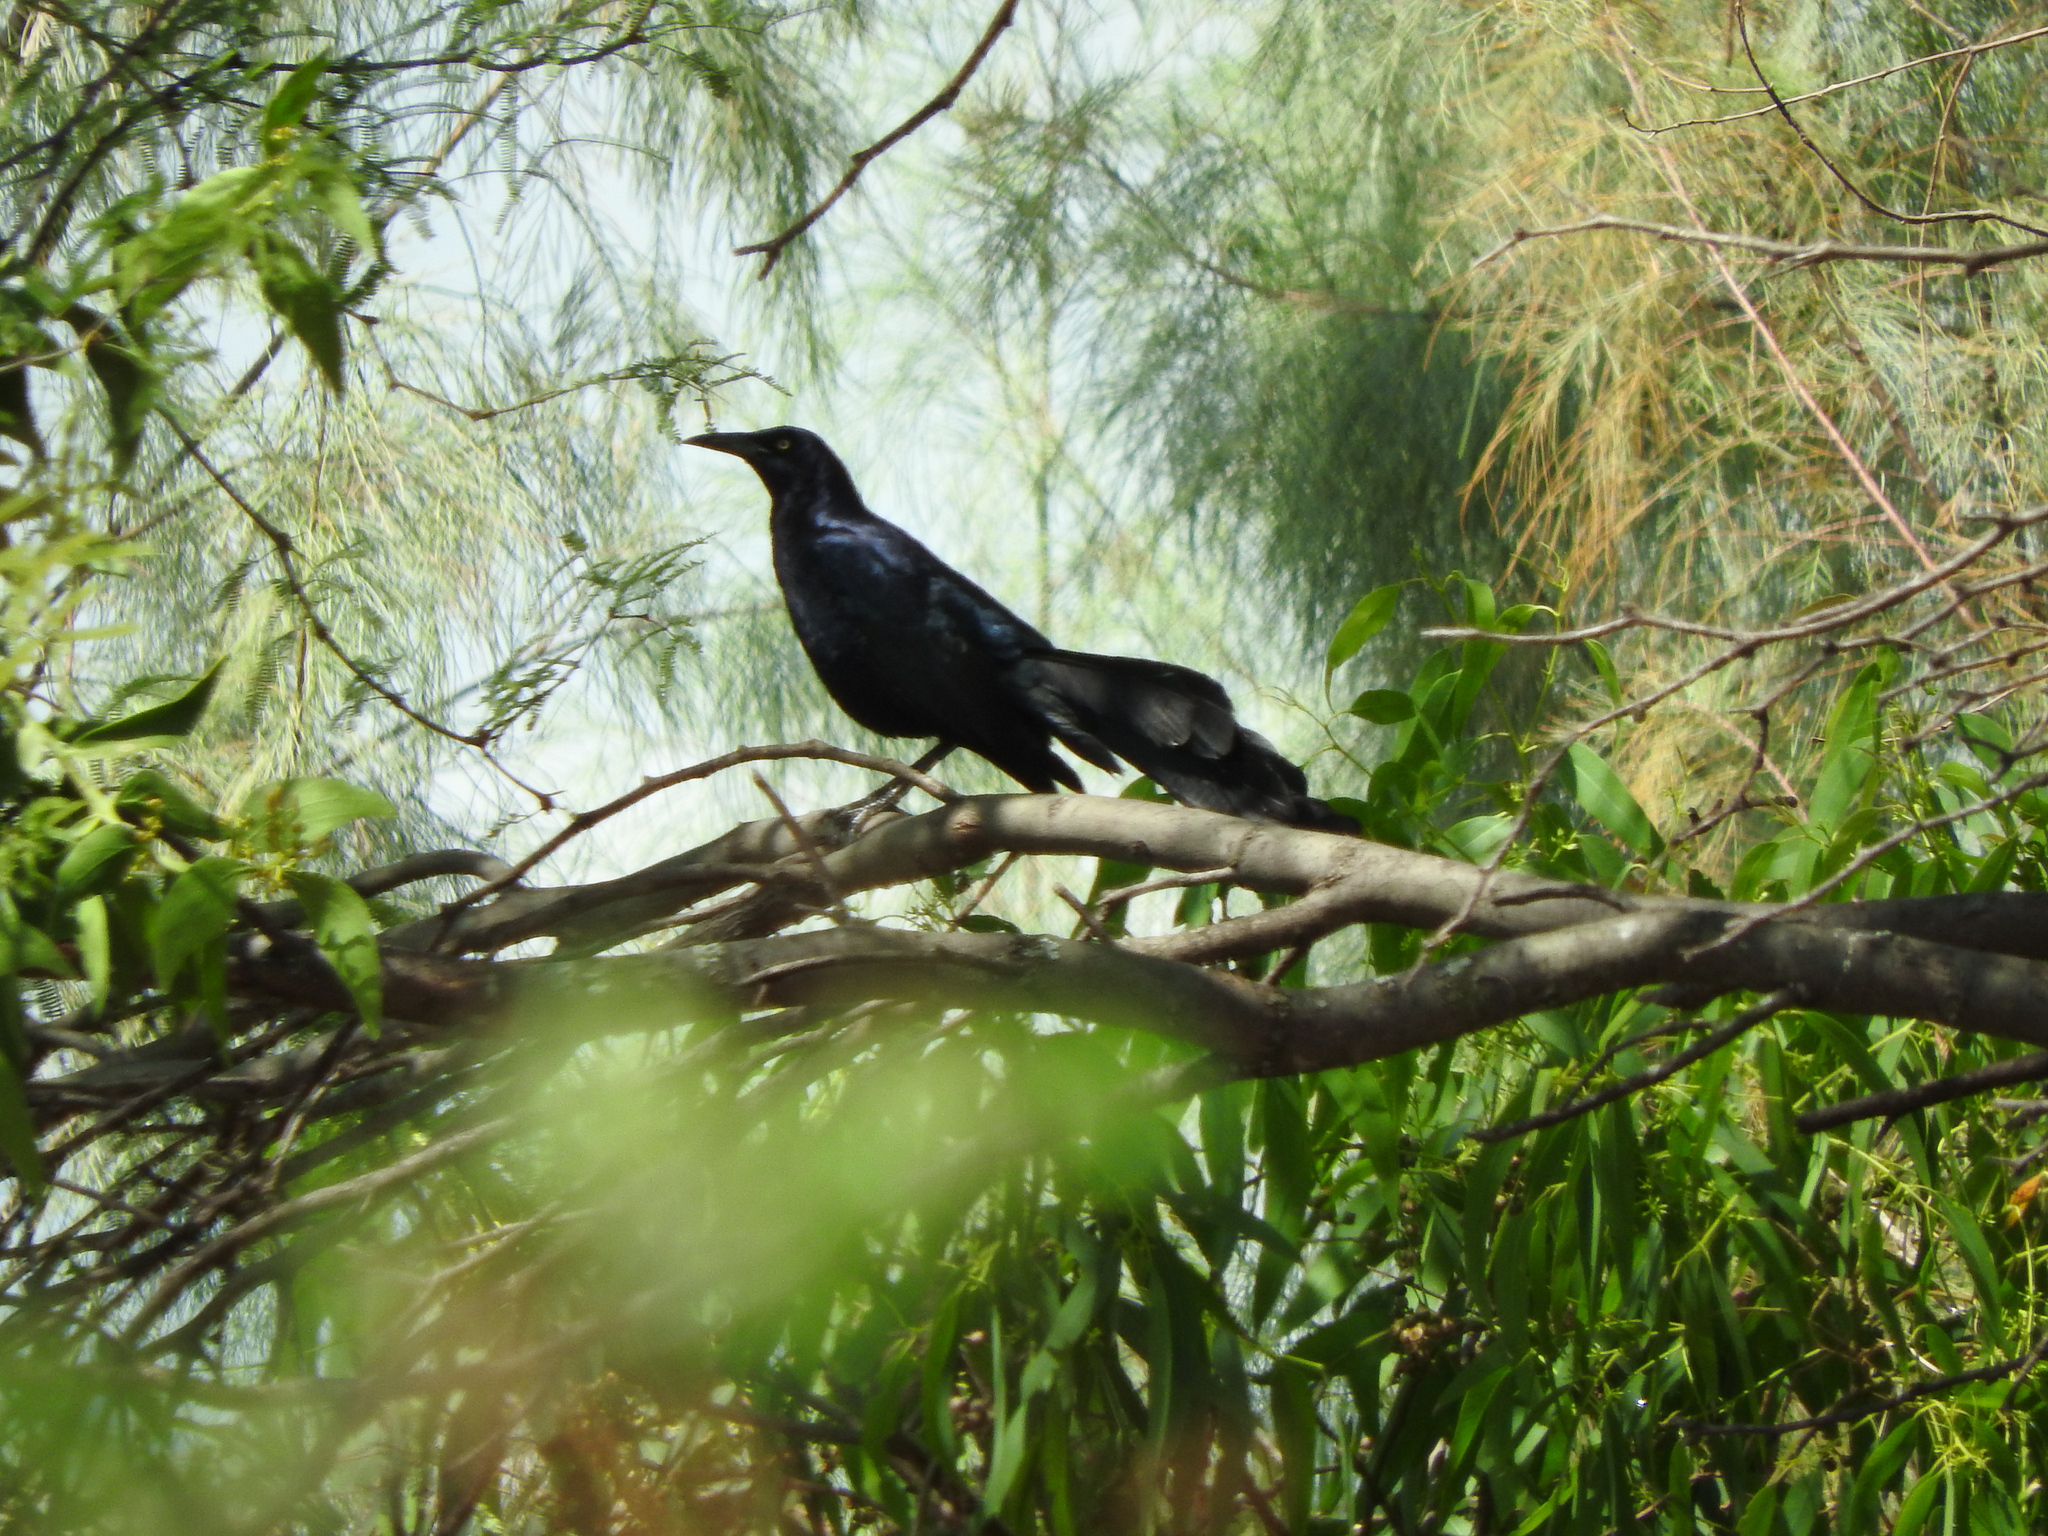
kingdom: Animalia
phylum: Chordata
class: Aves
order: Passeriformes
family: Icteridae
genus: Quiscalus
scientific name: Quiscalus mexicanus
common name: Great-tailed grackle
